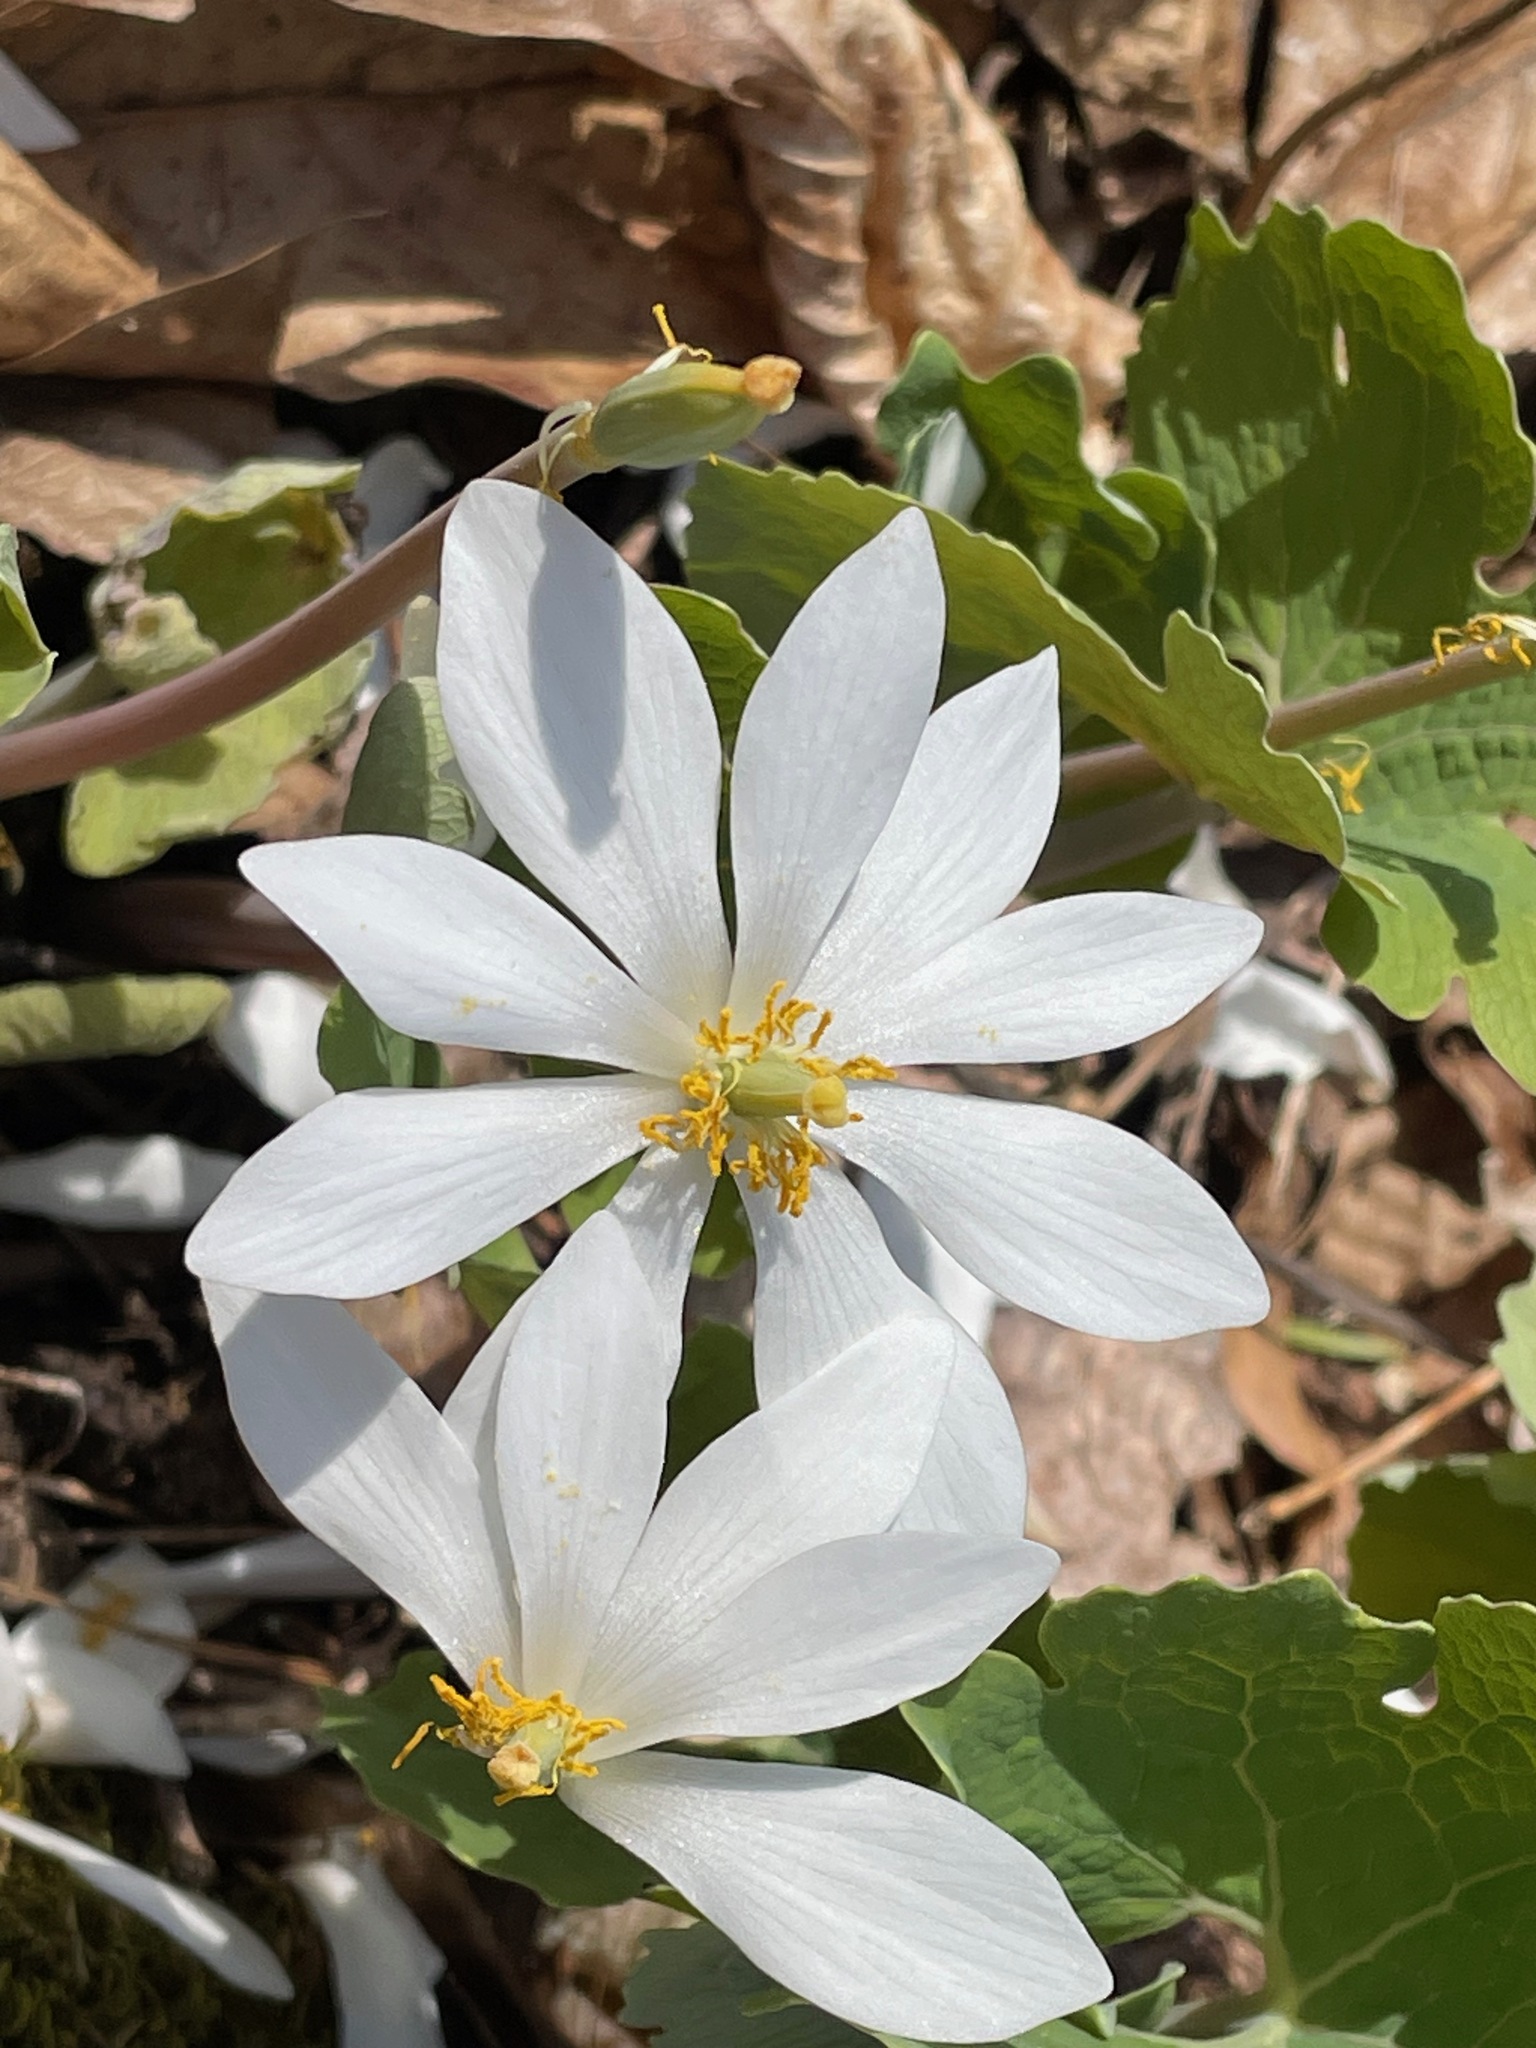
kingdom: Plantae
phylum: Tracheophyta
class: Magnoliopsida
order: Ranunculales
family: Papaveraceae
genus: Sanguinaria
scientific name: Sanguinaria canadensis
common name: Bloodroot
